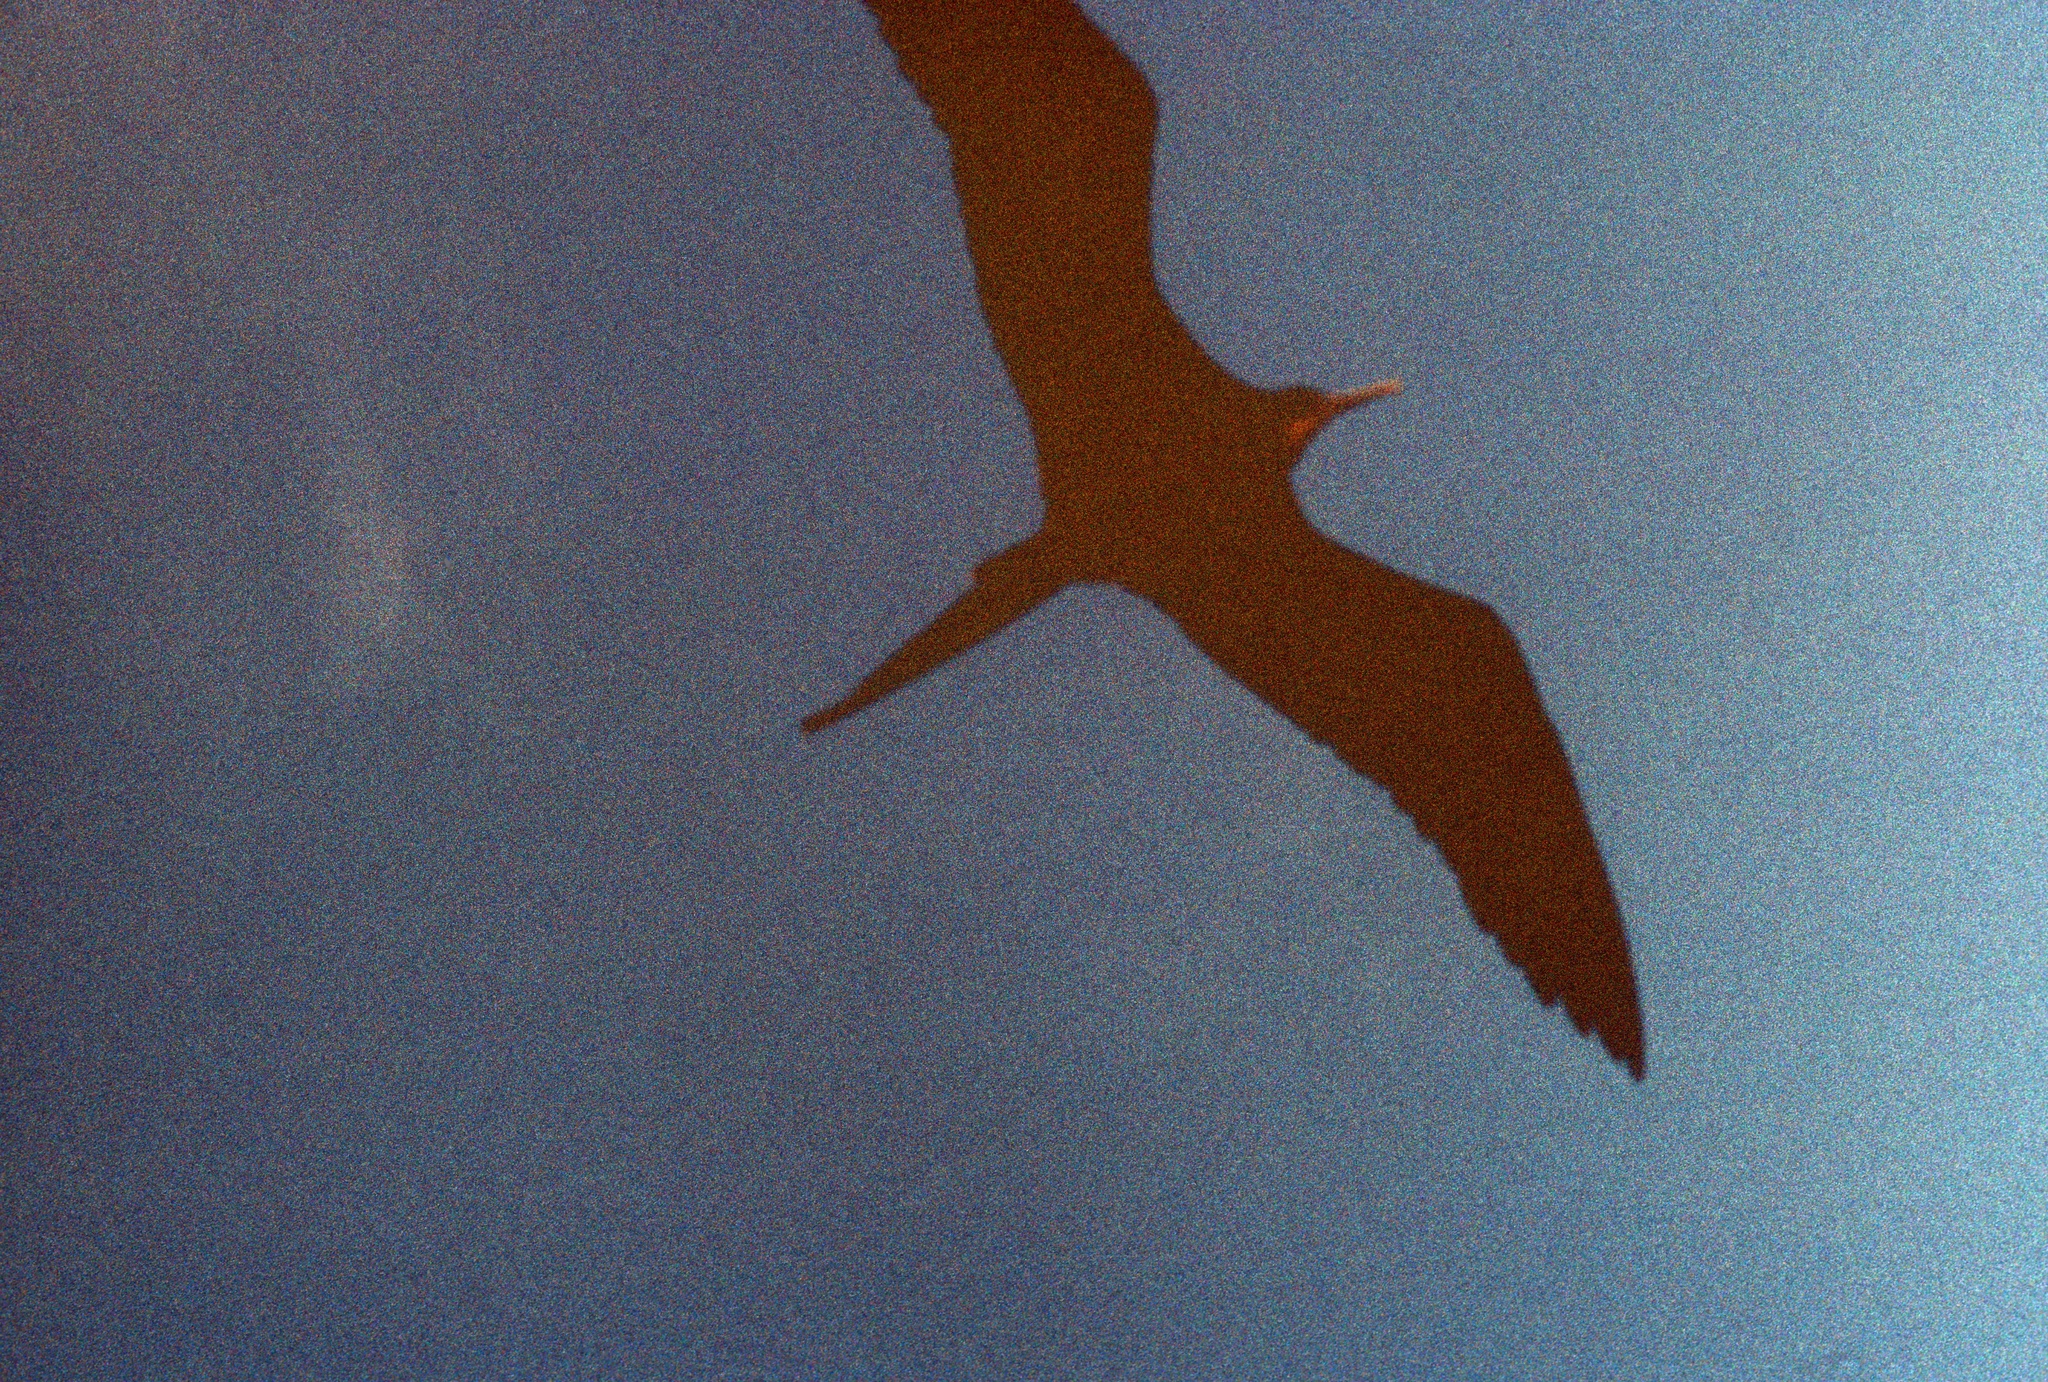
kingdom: Animalia
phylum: Chordata
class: Aves
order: Suliformes
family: Fregatidae
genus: Fregata
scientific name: Fregata magnificens
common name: Magnificent frigatebird
